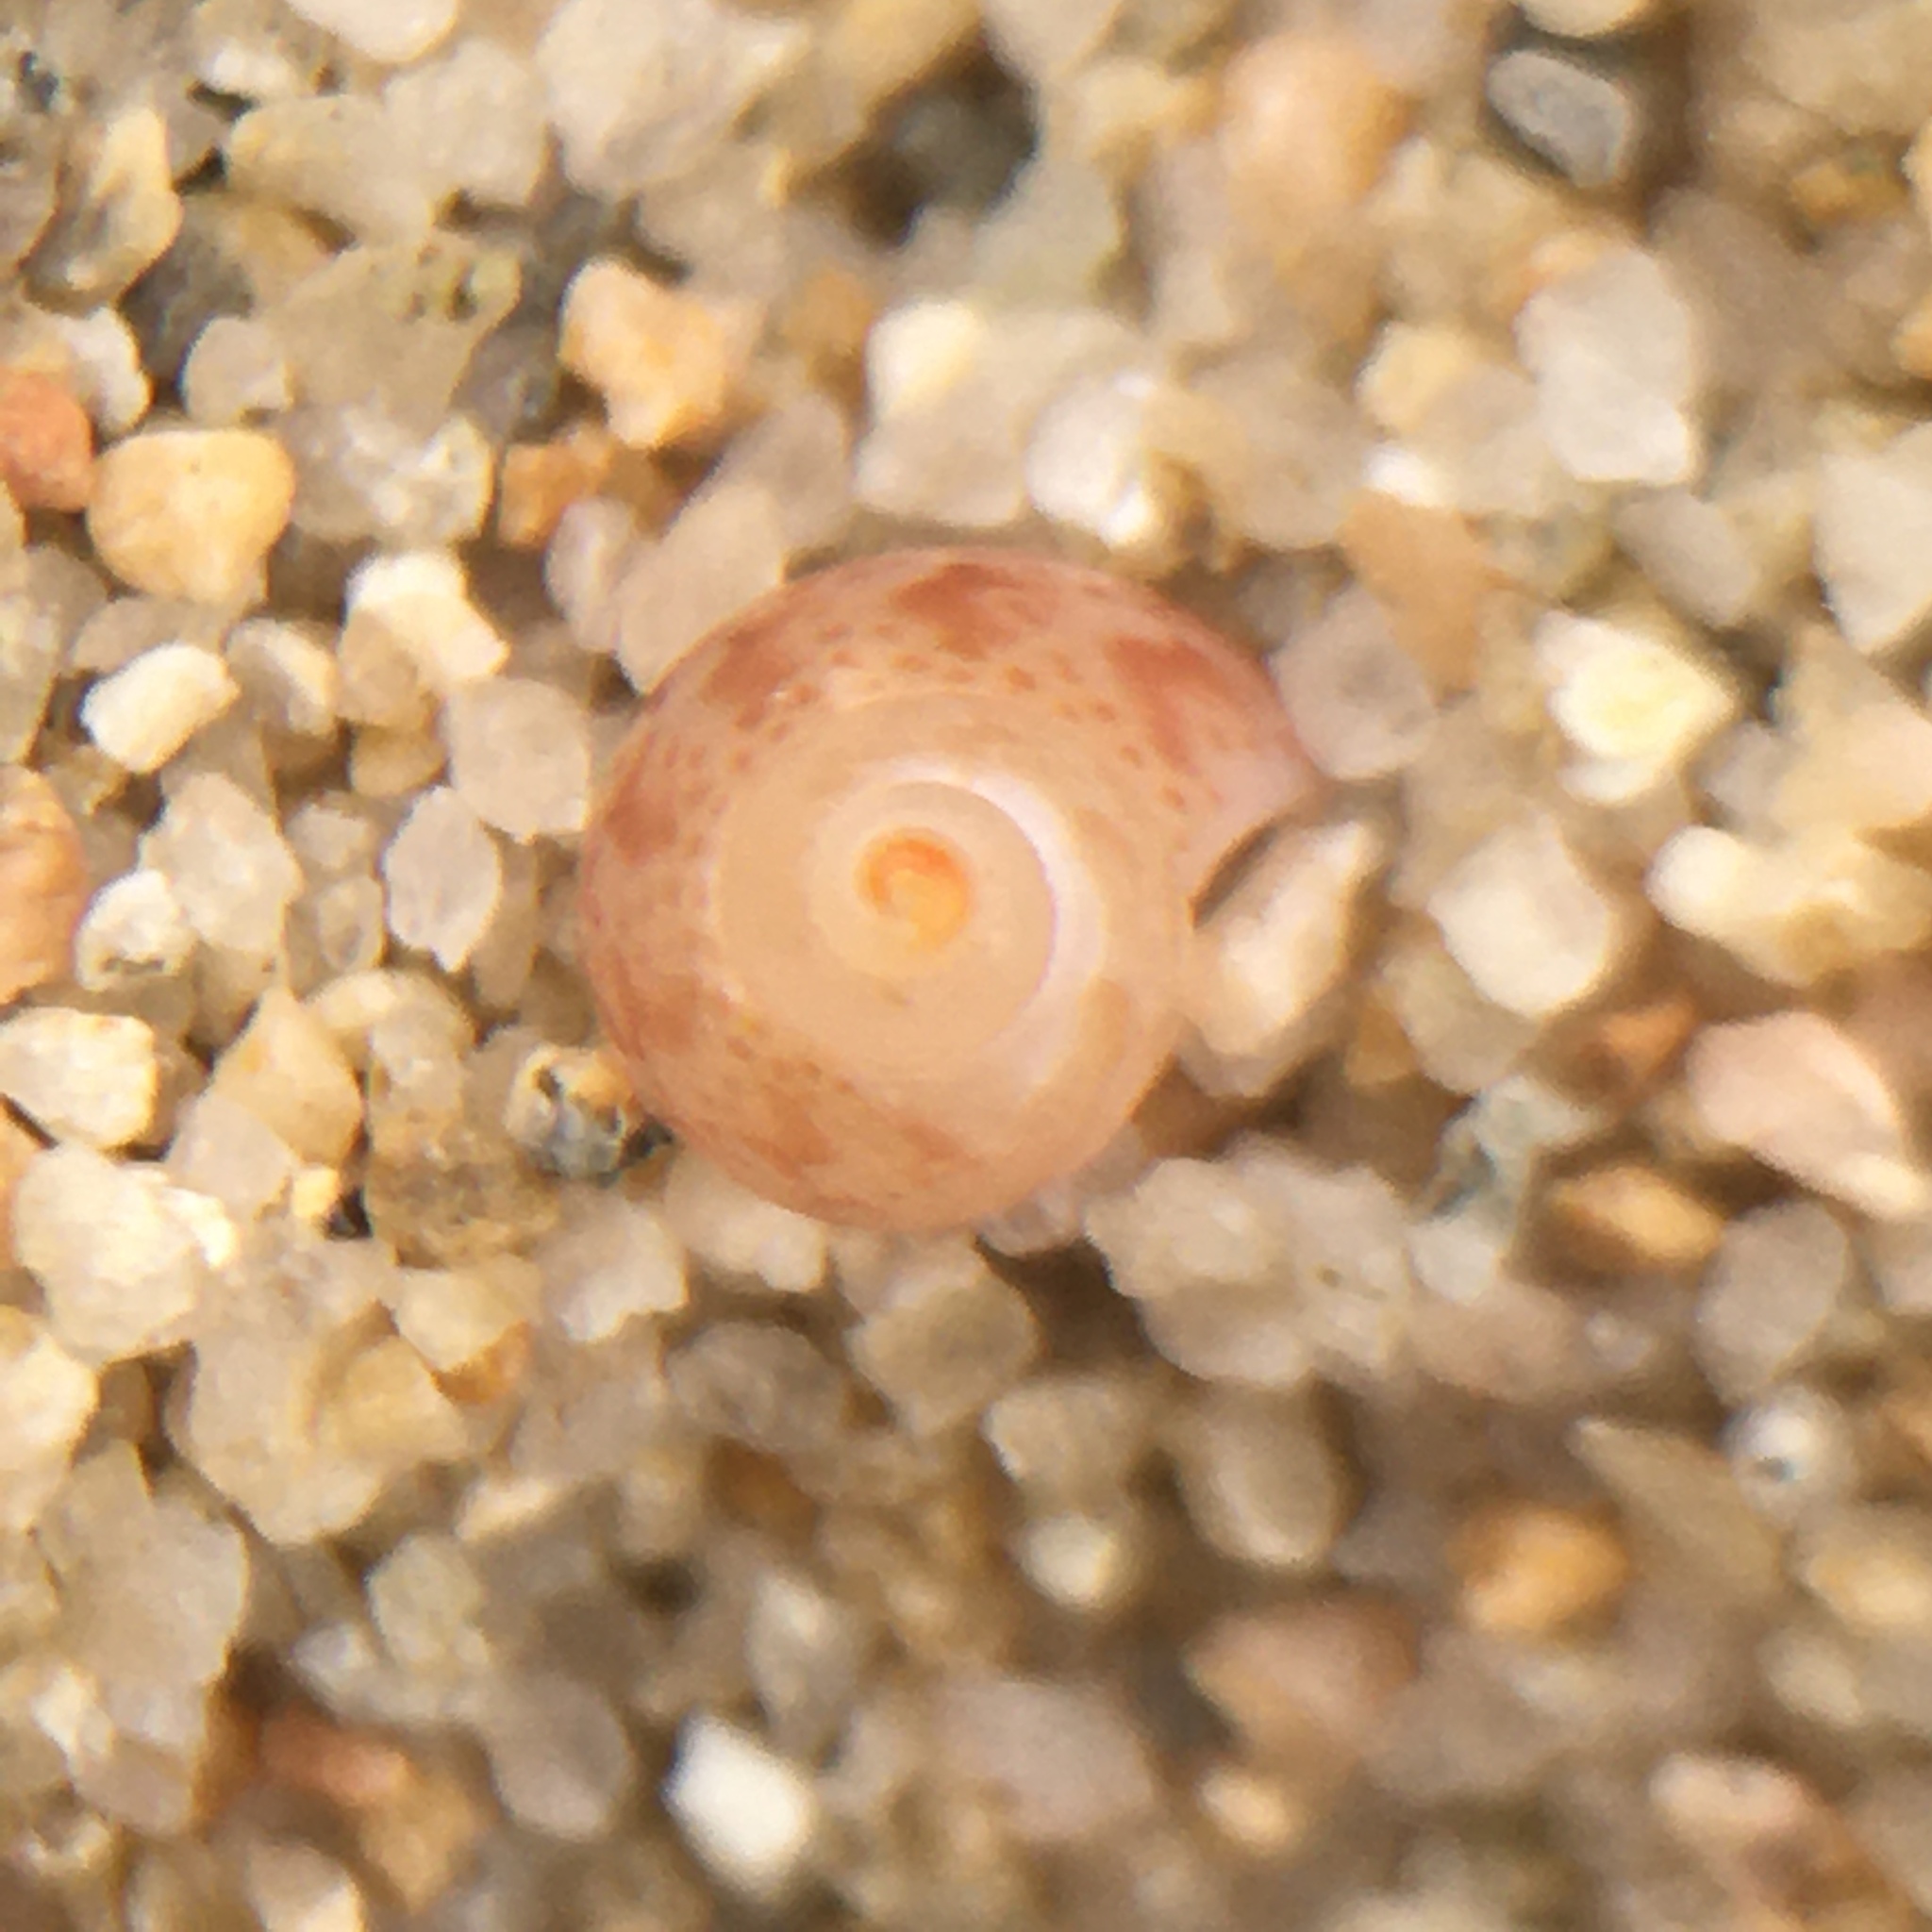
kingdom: Animalia
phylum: Mollusca
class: Gastropoda
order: Trochida
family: Phasianellidae
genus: Tricolia
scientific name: Tricolia pullus
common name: Pheasant shell
